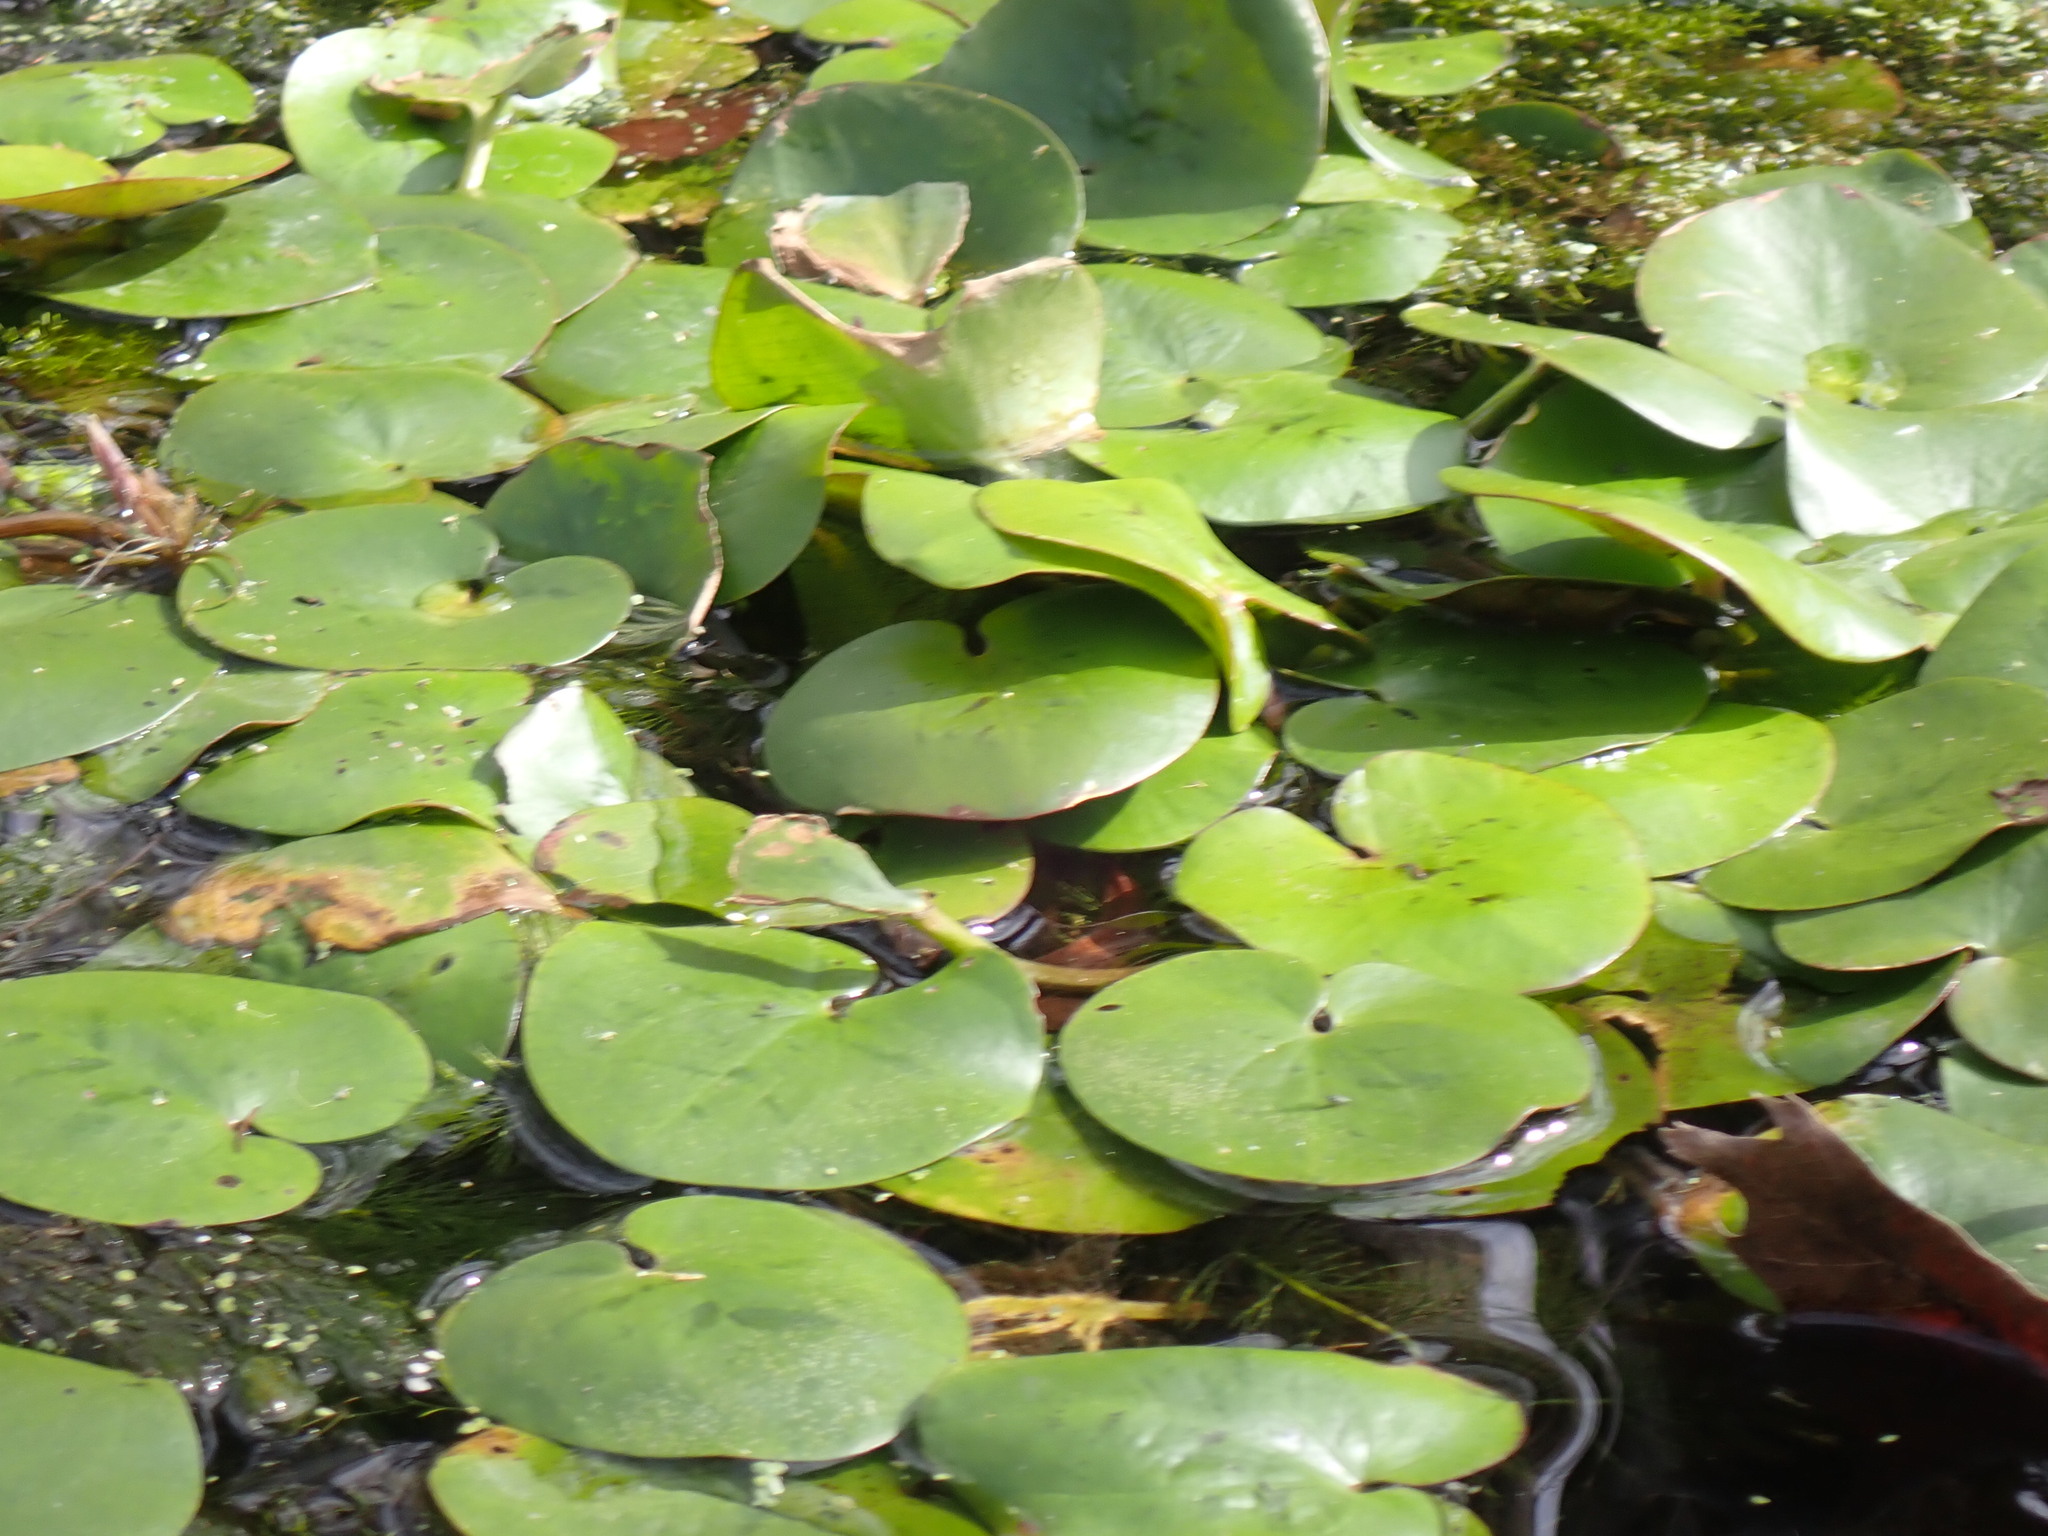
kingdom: Plantae
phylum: Tracheophyta
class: Liliopsida
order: Alismatales
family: Hydrocharitaceae
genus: Hydrocharis
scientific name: Hydrocharis spongia
